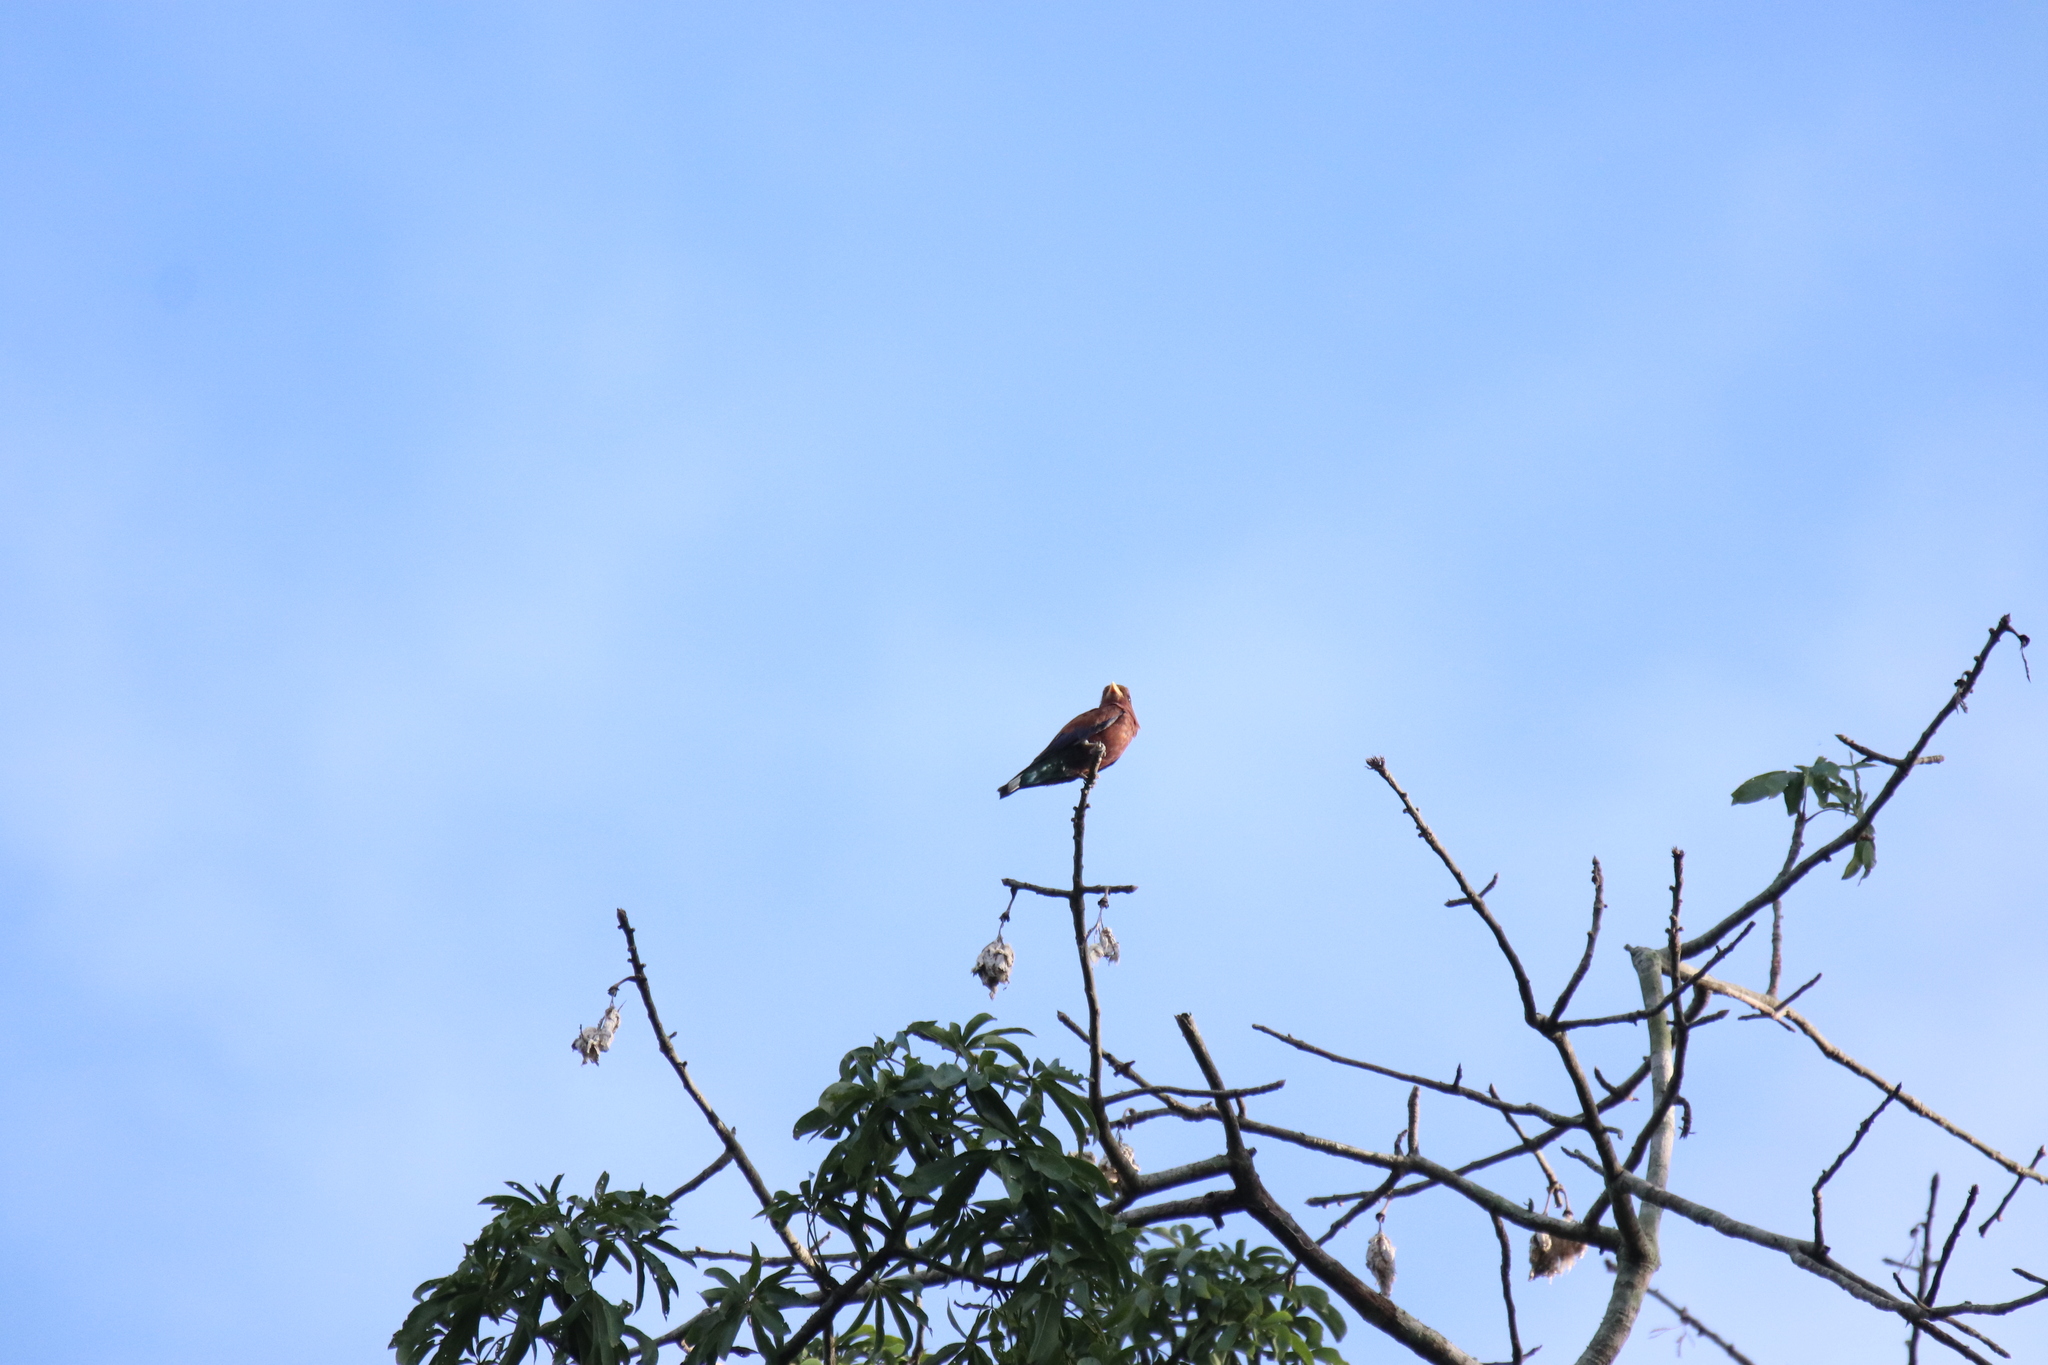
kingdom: Animalia
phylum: Chordata
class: Aves
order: Coraciiformes
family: Coraciidae
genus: Eurystomus
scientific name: Eurystomus glaucurus
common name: Broad-billed roller
